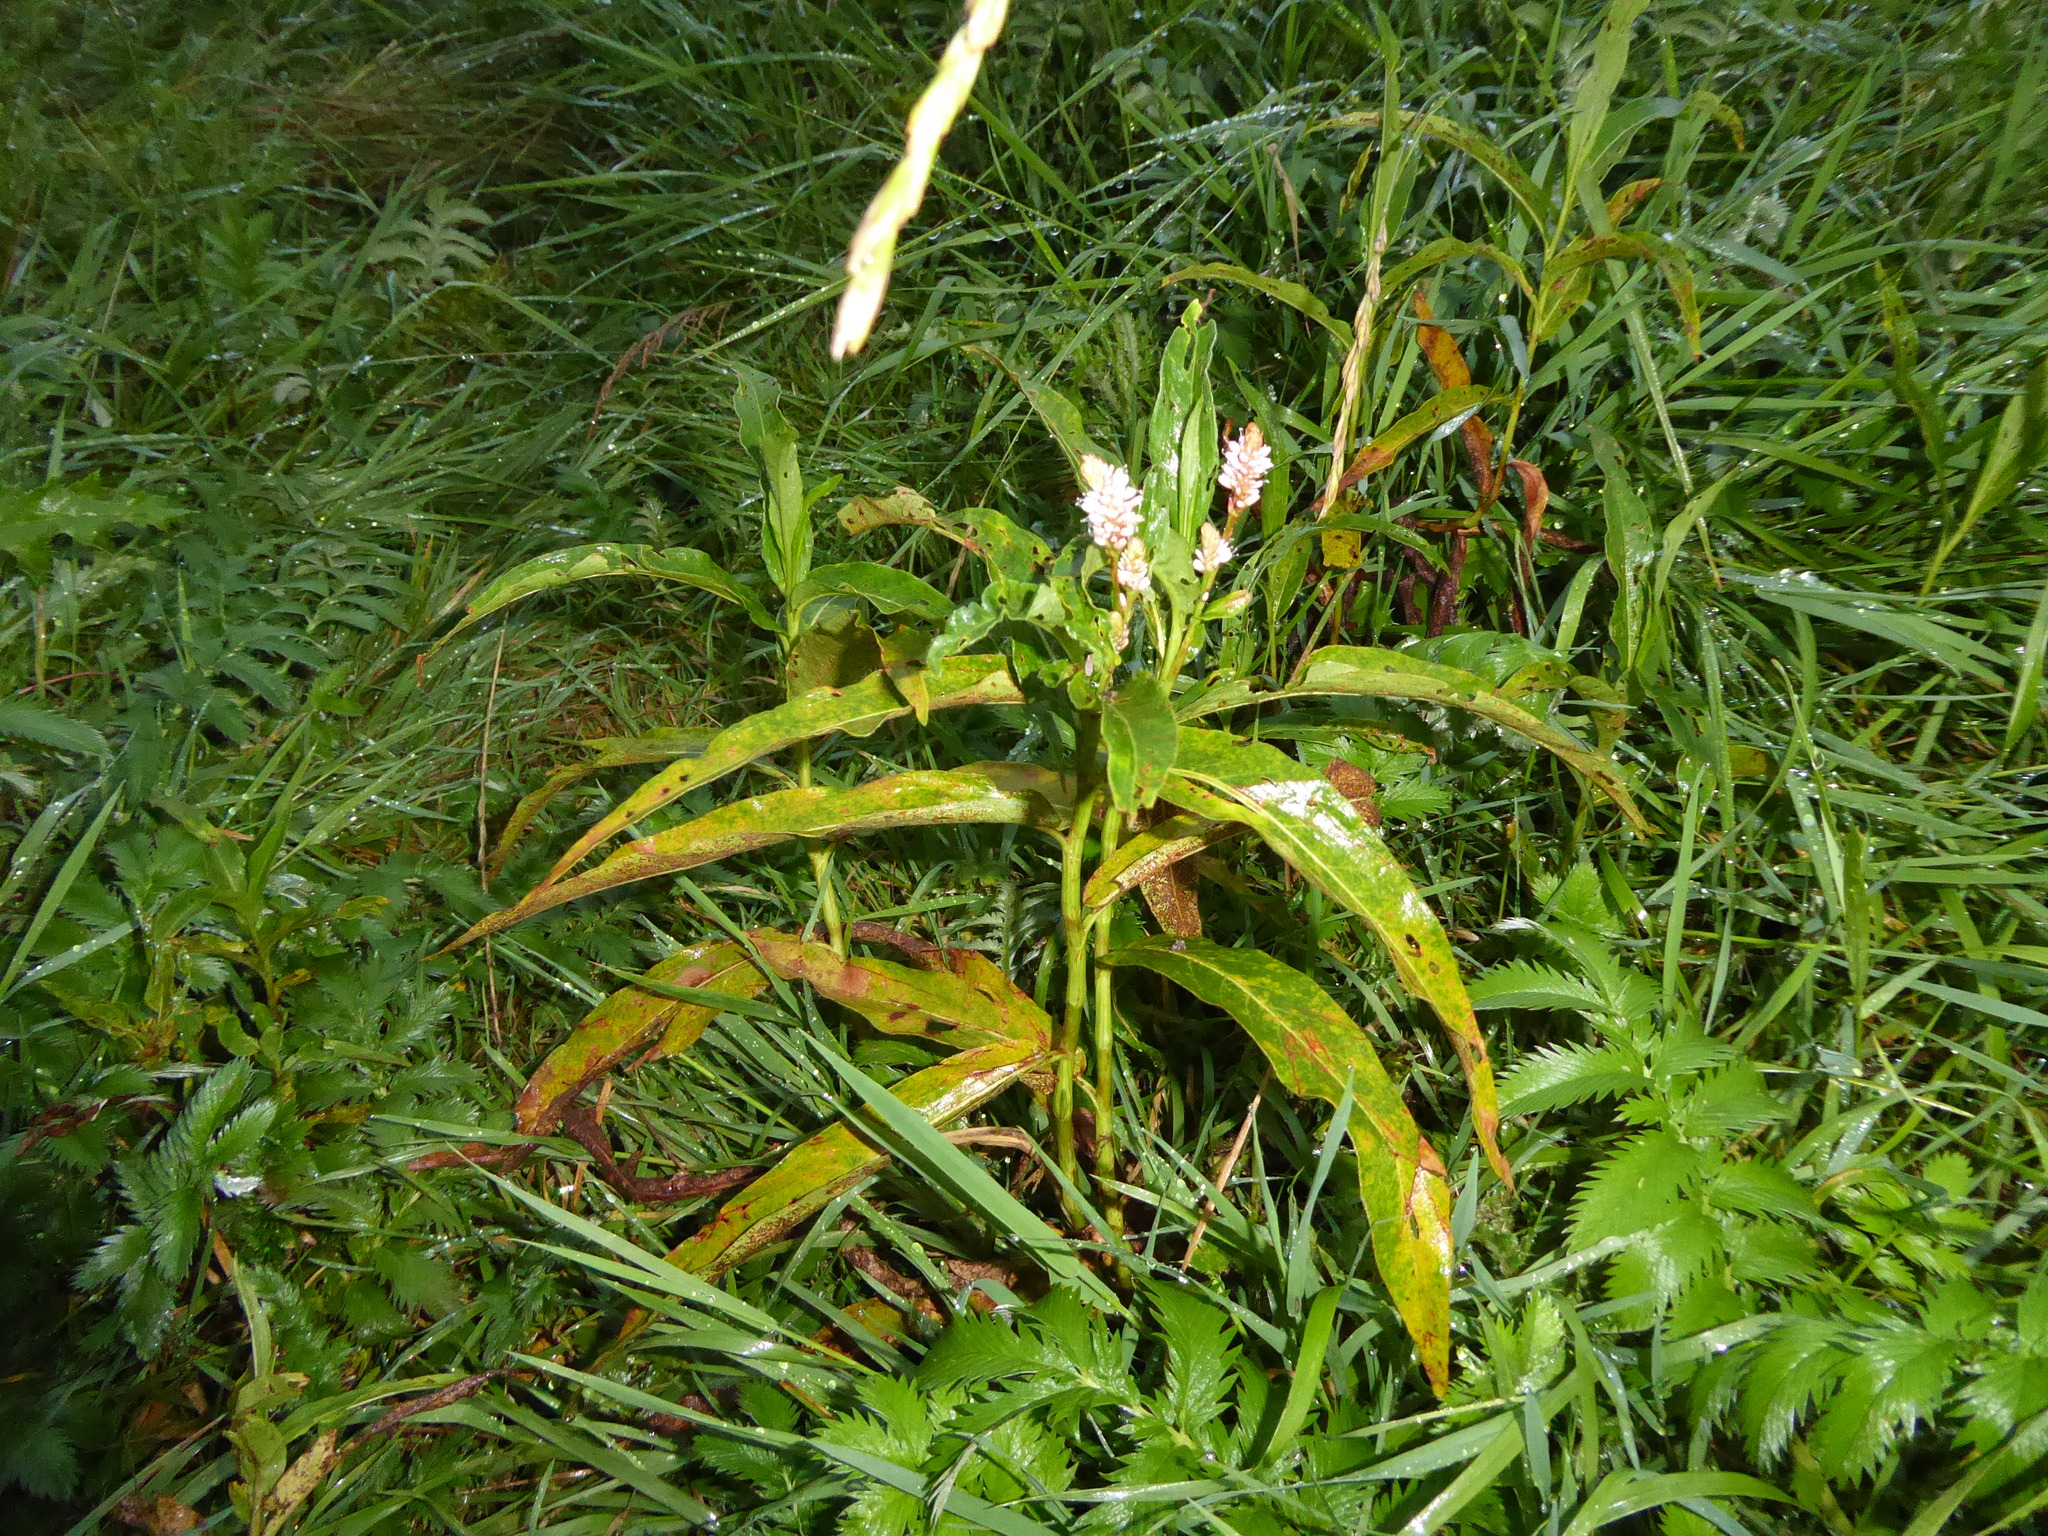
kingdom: Plantae
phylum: Tracheophyta
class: Magnoliopsida
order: Caryophyllales
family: Polygonaceae
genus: Persicaria
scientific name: Persicaria amphibia
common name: Amphibious bistort
